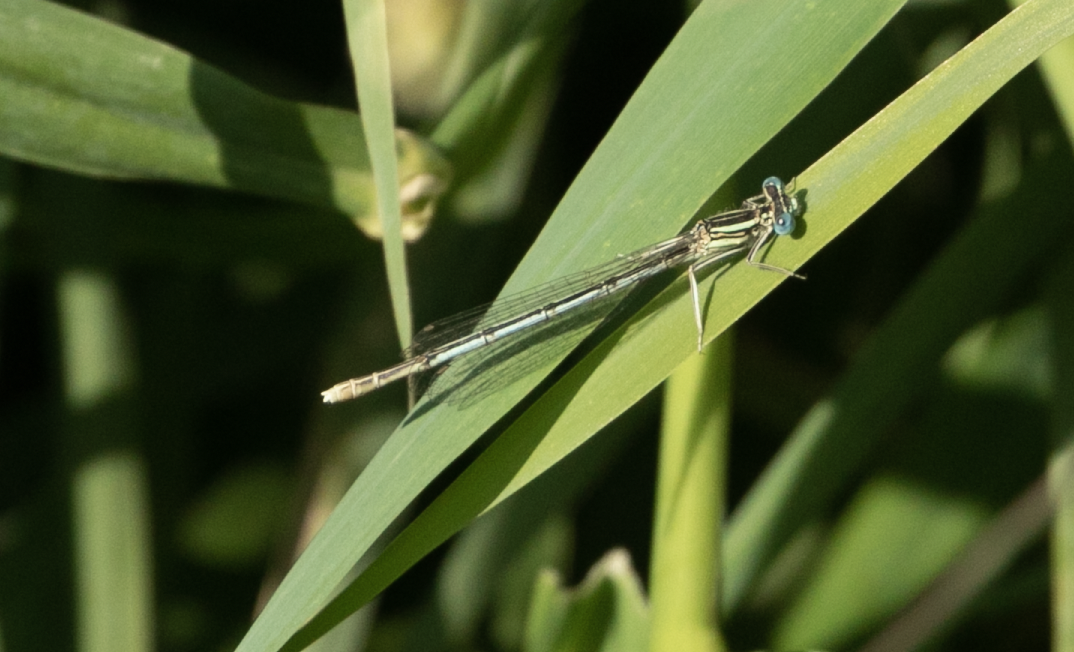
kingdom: Animalia
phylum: Arthropoda
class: Insecta
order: Odonata
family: Platycnemididae
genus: Platycnemis
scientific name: Platycnemis pennipes
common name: White-legged damselfly
